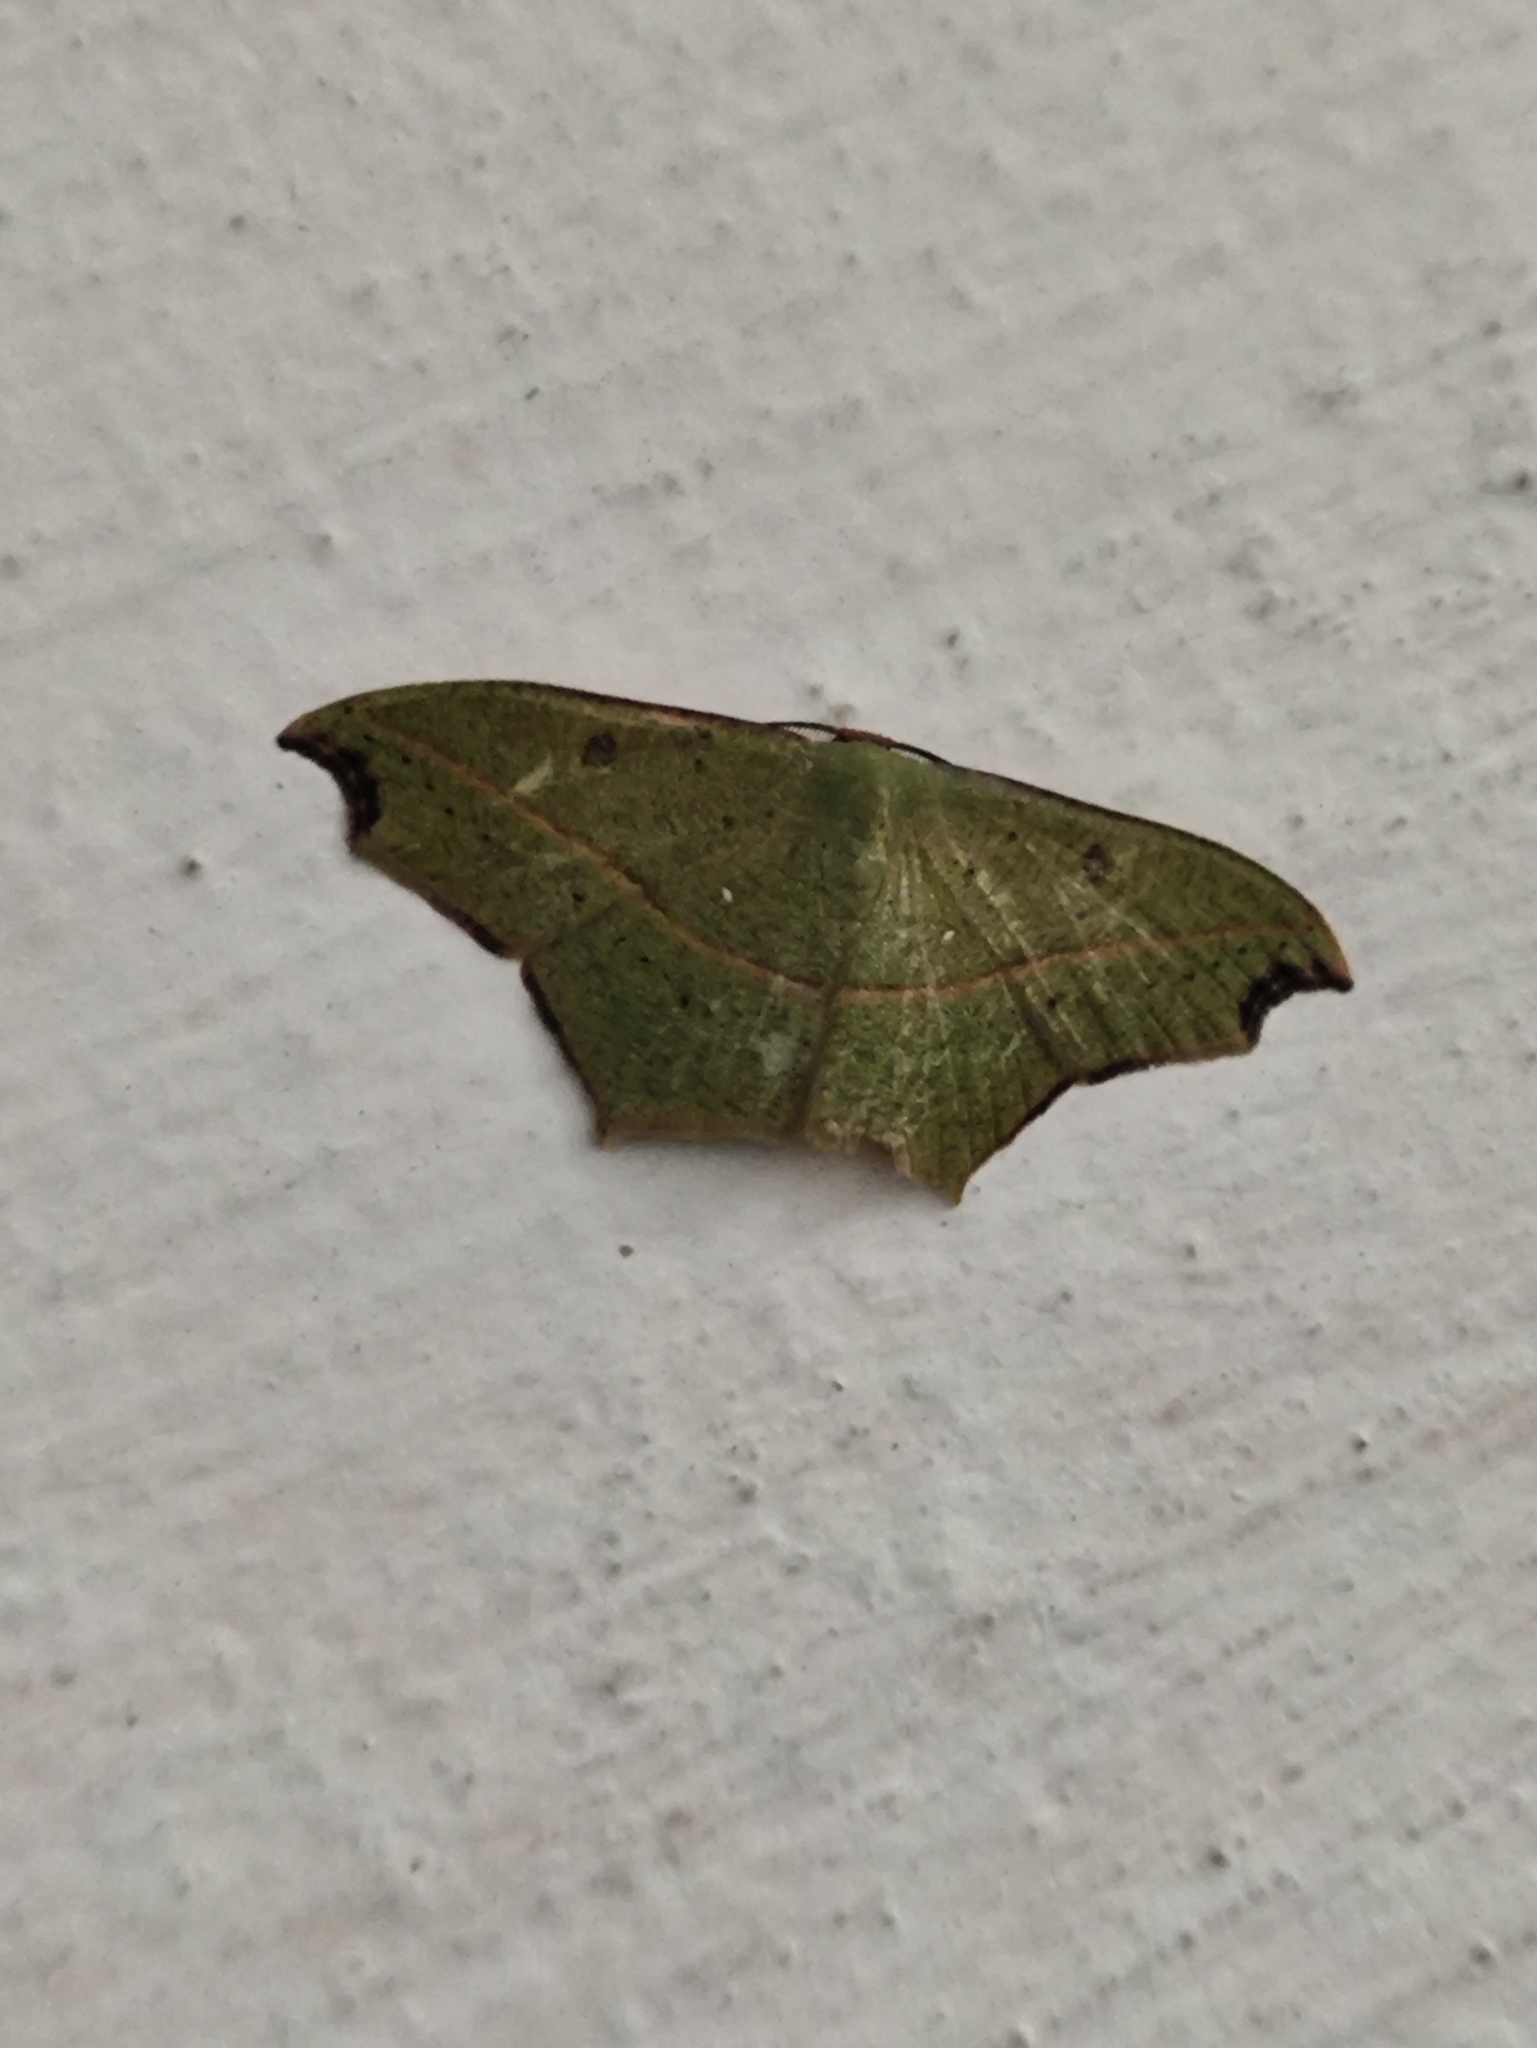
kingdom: Animalia
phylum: Arthropoda
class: Insecta
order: Lepidoptera
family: Geometridae
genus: Traminda
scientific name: Traminda aventiaria
